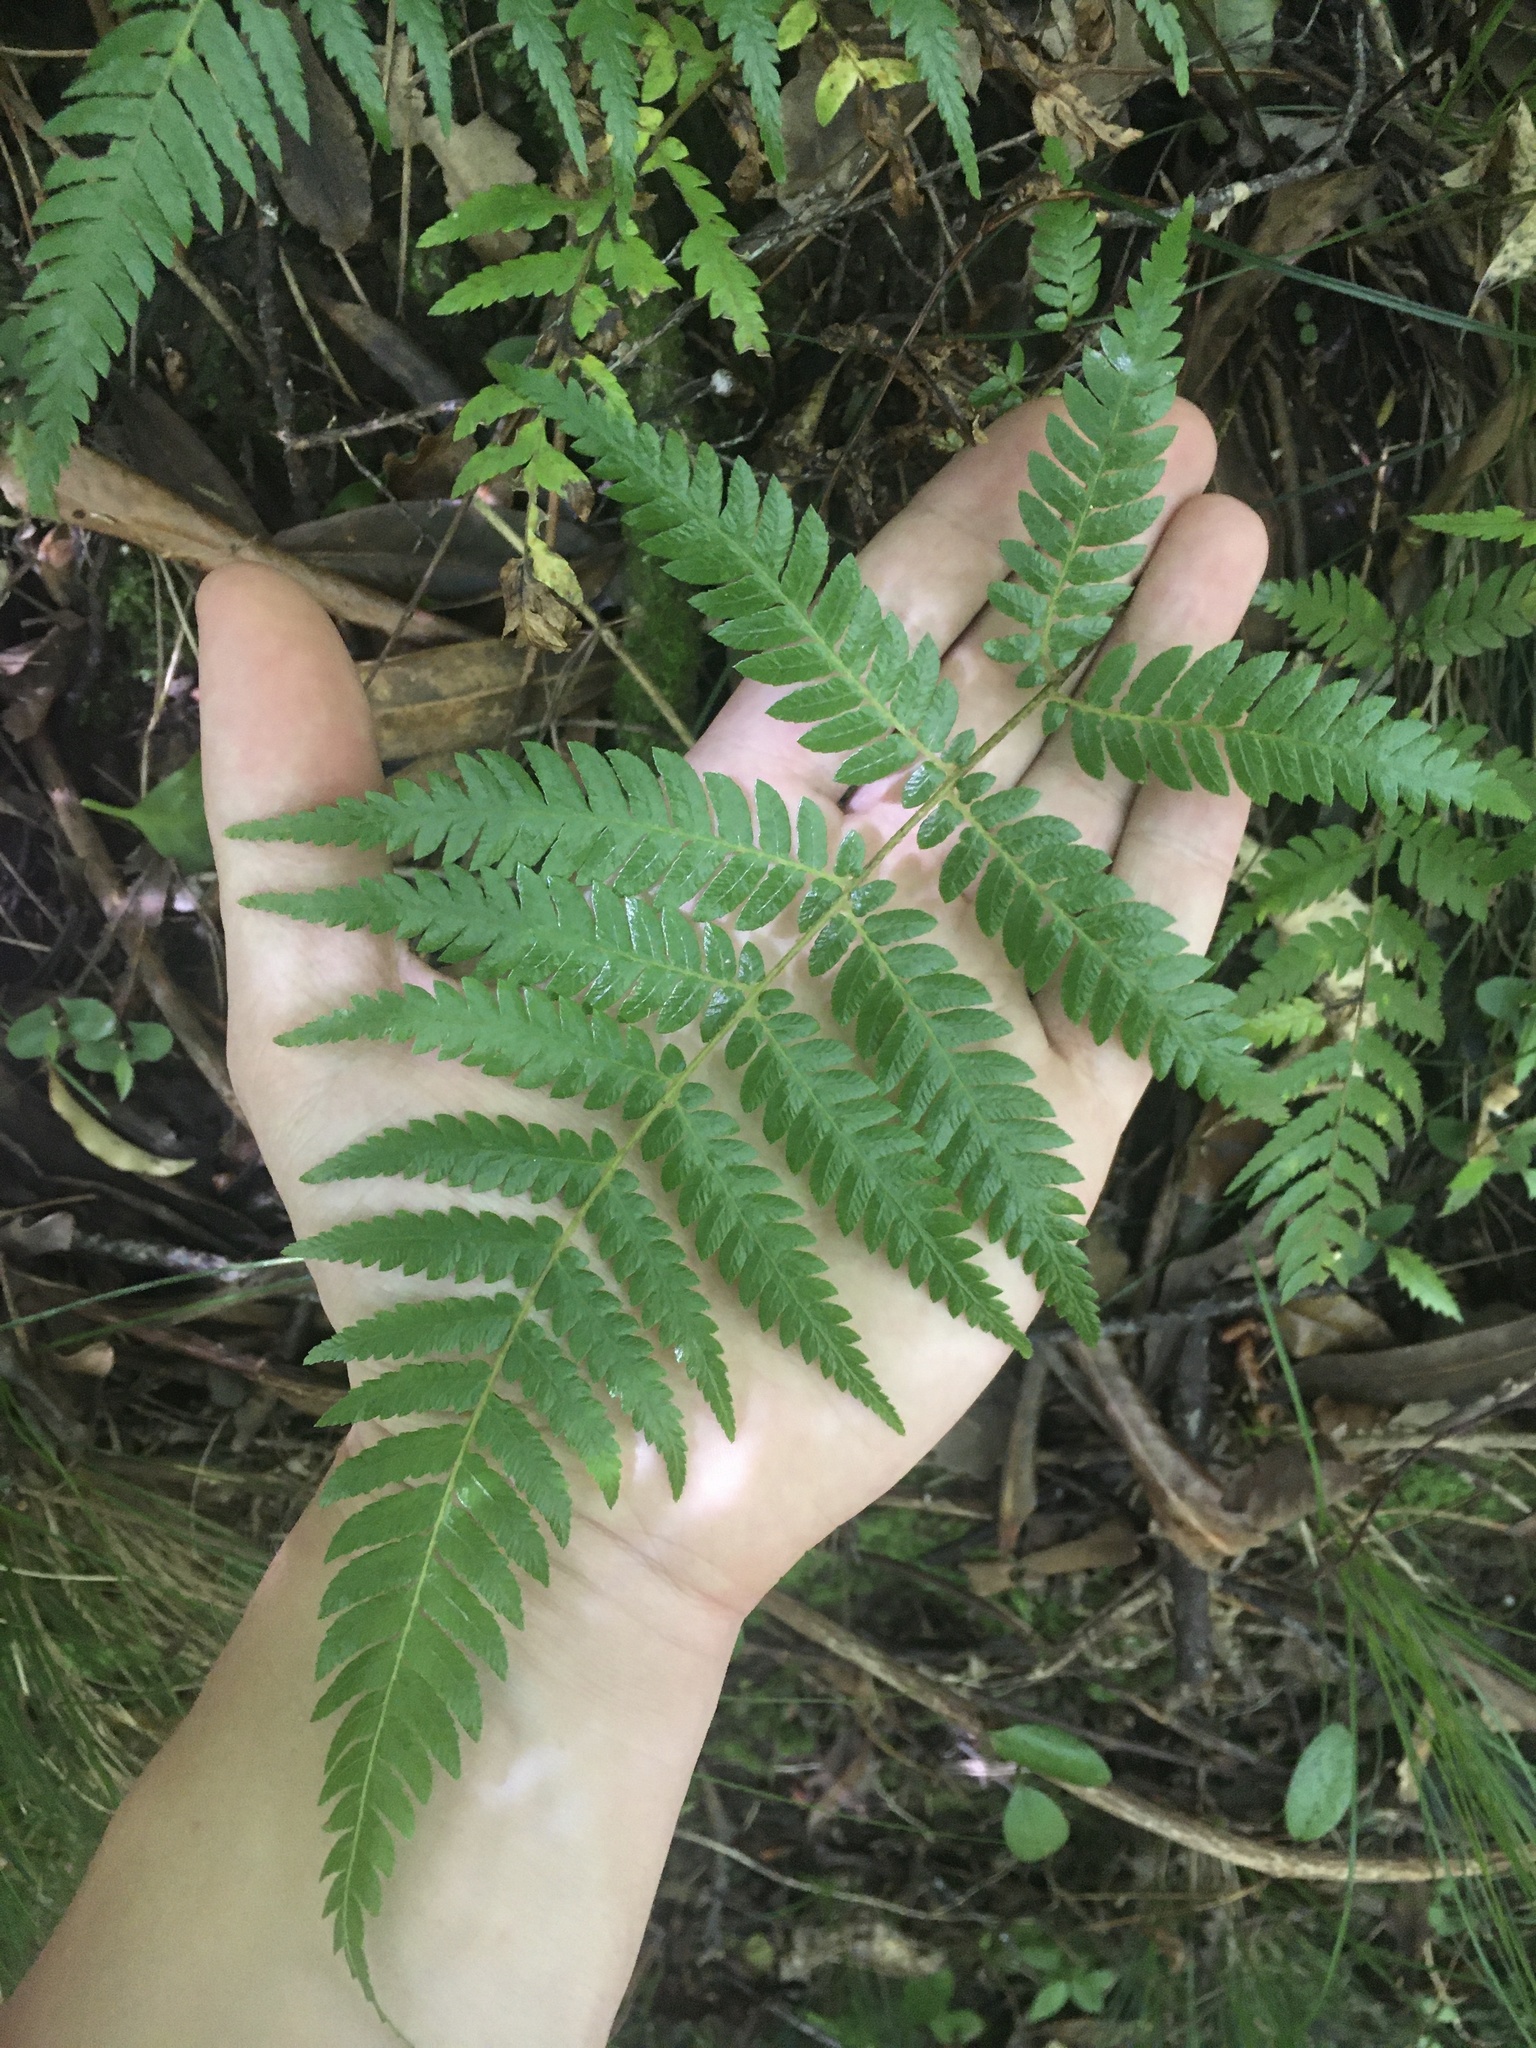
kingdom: Plantae
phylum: Tracheophyta
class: Polypodiopsida
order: Cyatheales
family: Cyatheaceae
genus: Alsophila
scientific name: Alsophila dealbata
